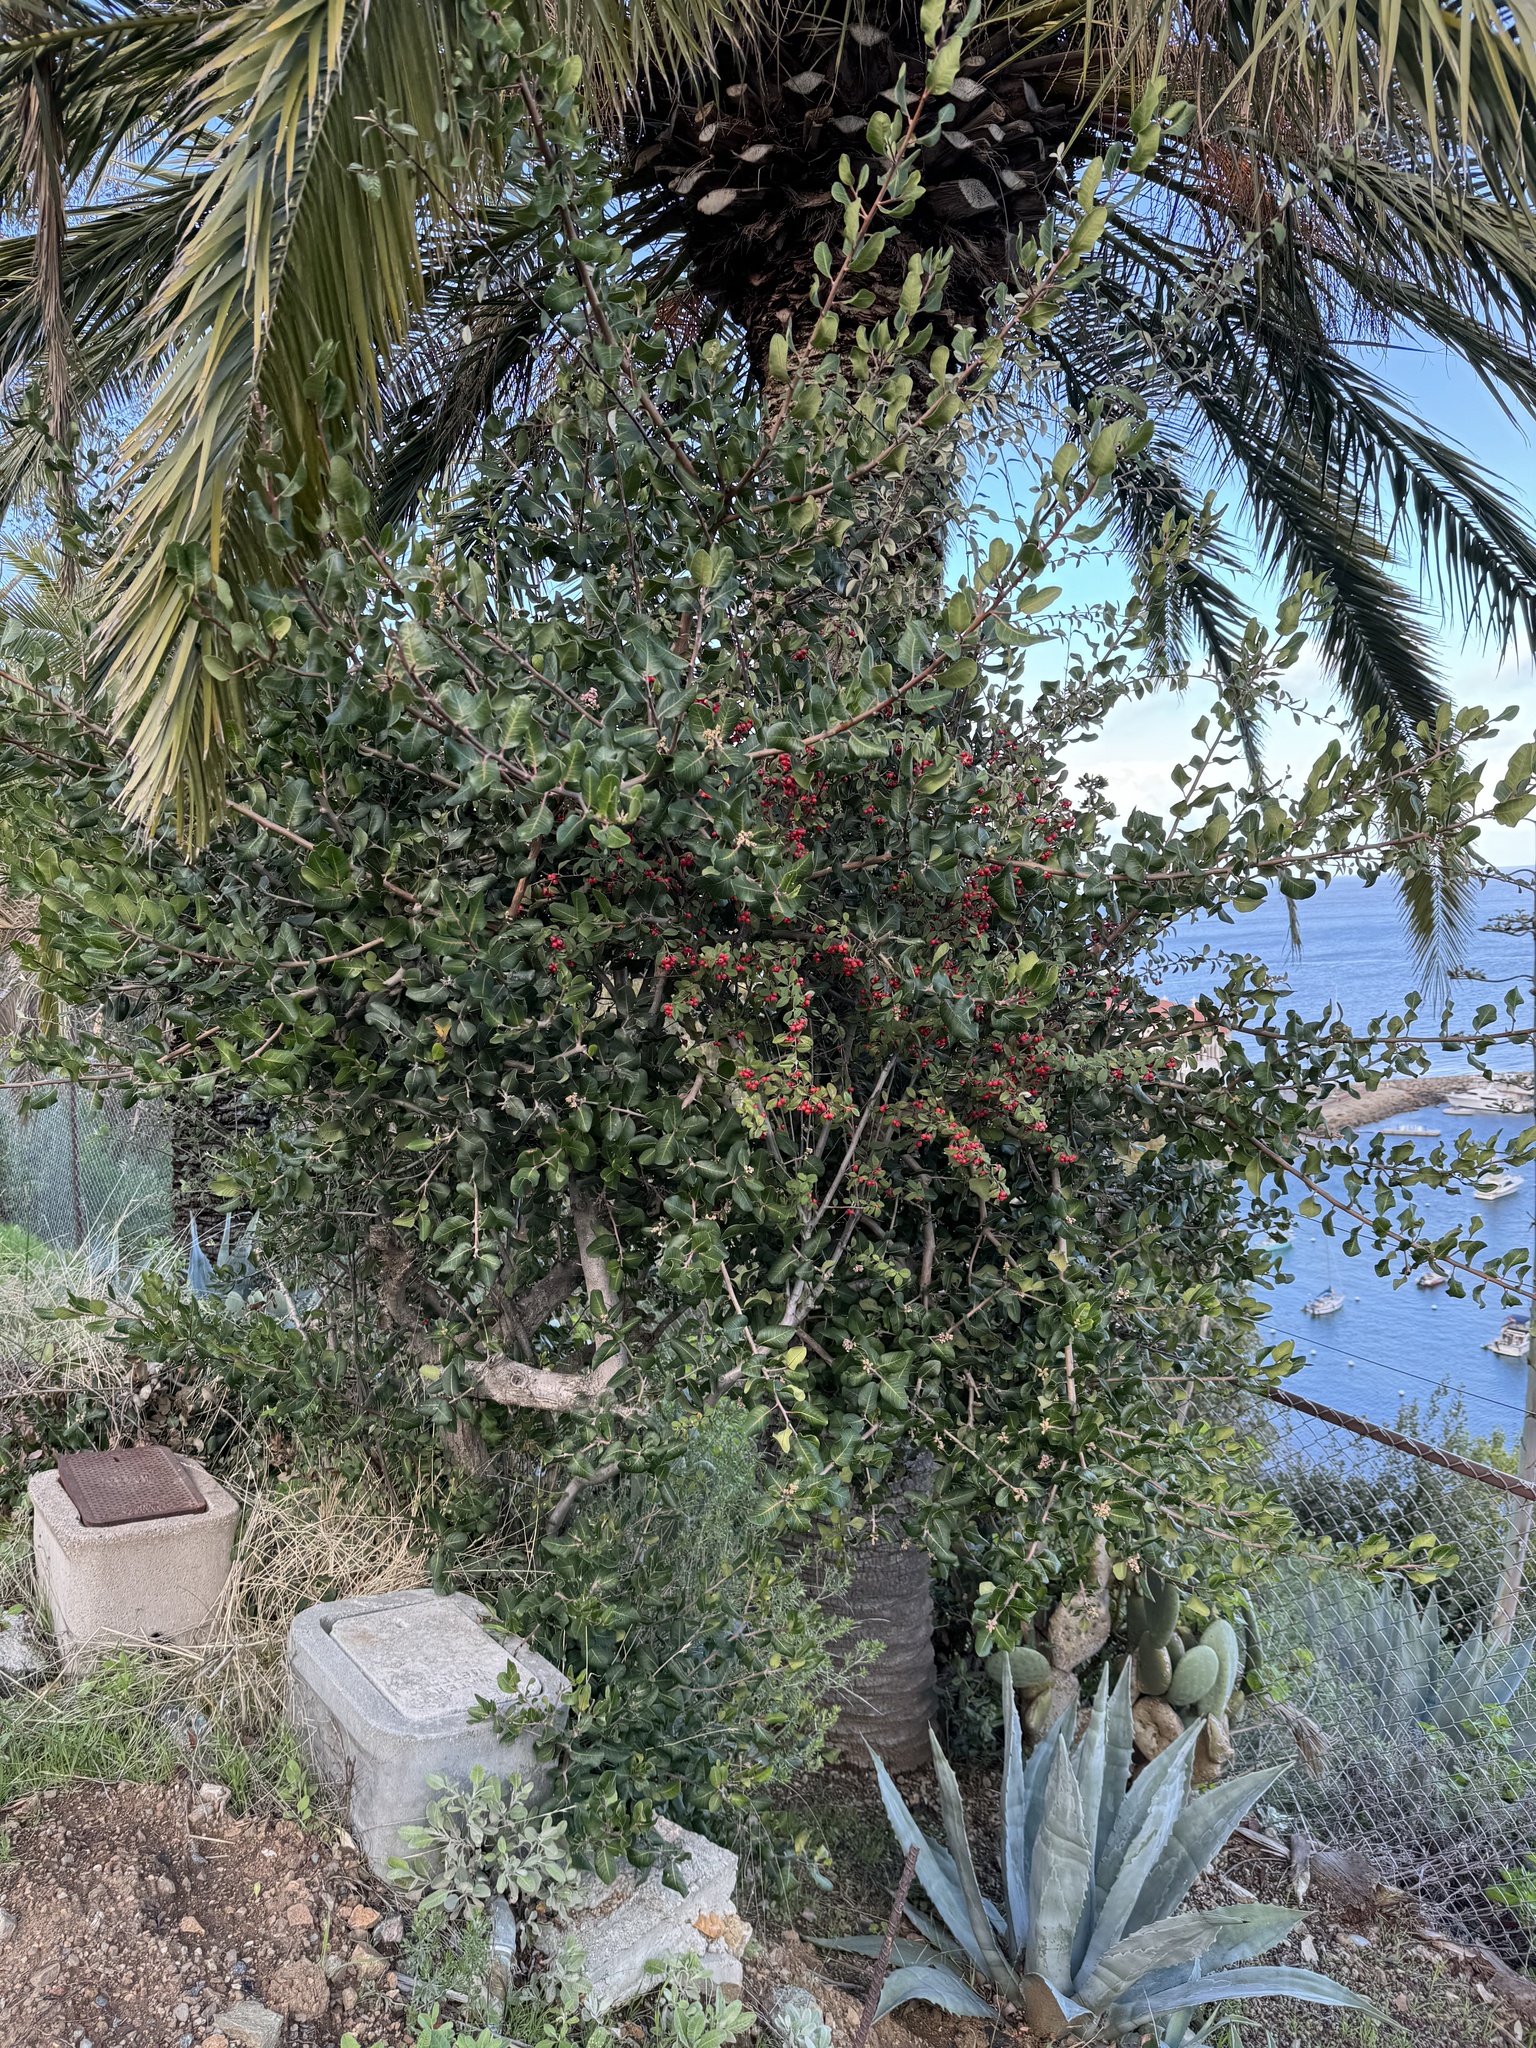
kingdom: Plantae
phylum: Tracheophyta
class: Magnoliopsida
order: Rosales
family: Rosaceae
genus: Cotoneaster
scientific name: Cotoneaster pannosus
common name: Silverleaf cotoneaster
